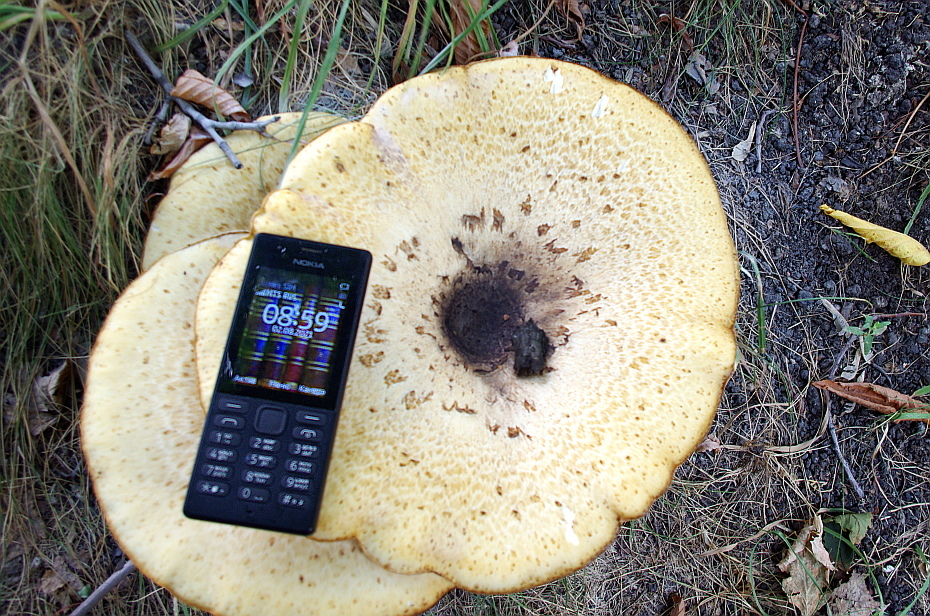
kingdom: Fungi
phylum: Basidiomycota
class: Agaricomycetes
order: Polyporales
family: Polyporaceae
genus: Cerioporus
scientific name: Cerioporus squamosus
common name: Dryad's saddle
